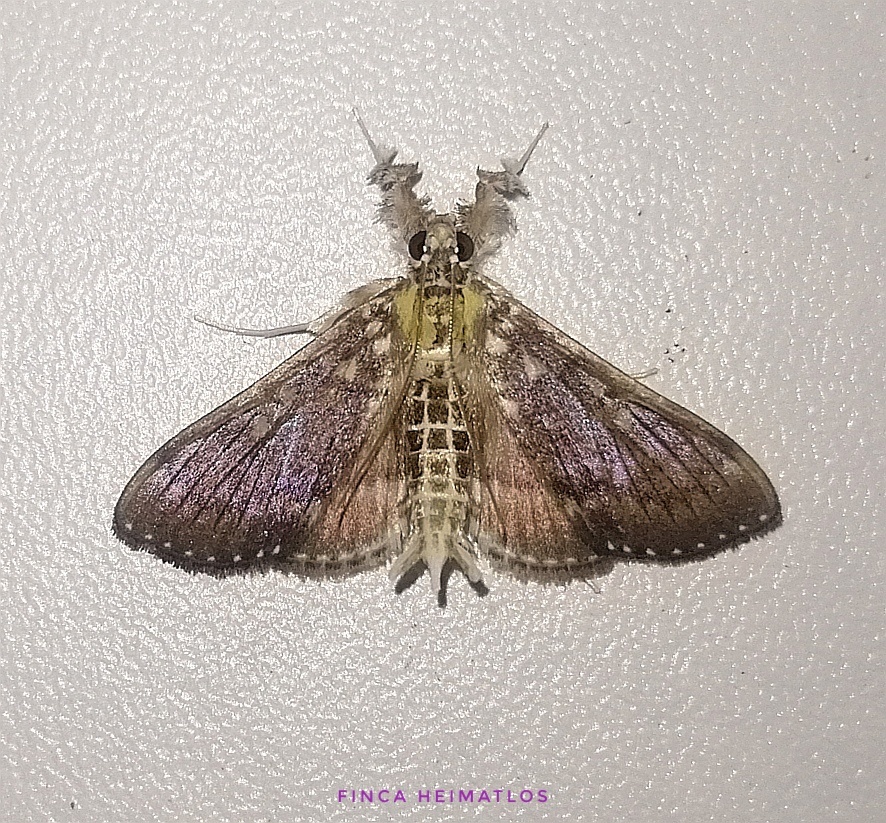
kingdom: Animalia
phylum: Arthropoda
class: Insecta
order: Lepidoptera
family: Crambidae
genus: Apilocrocis
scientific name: Apilocrocis excelsalis
